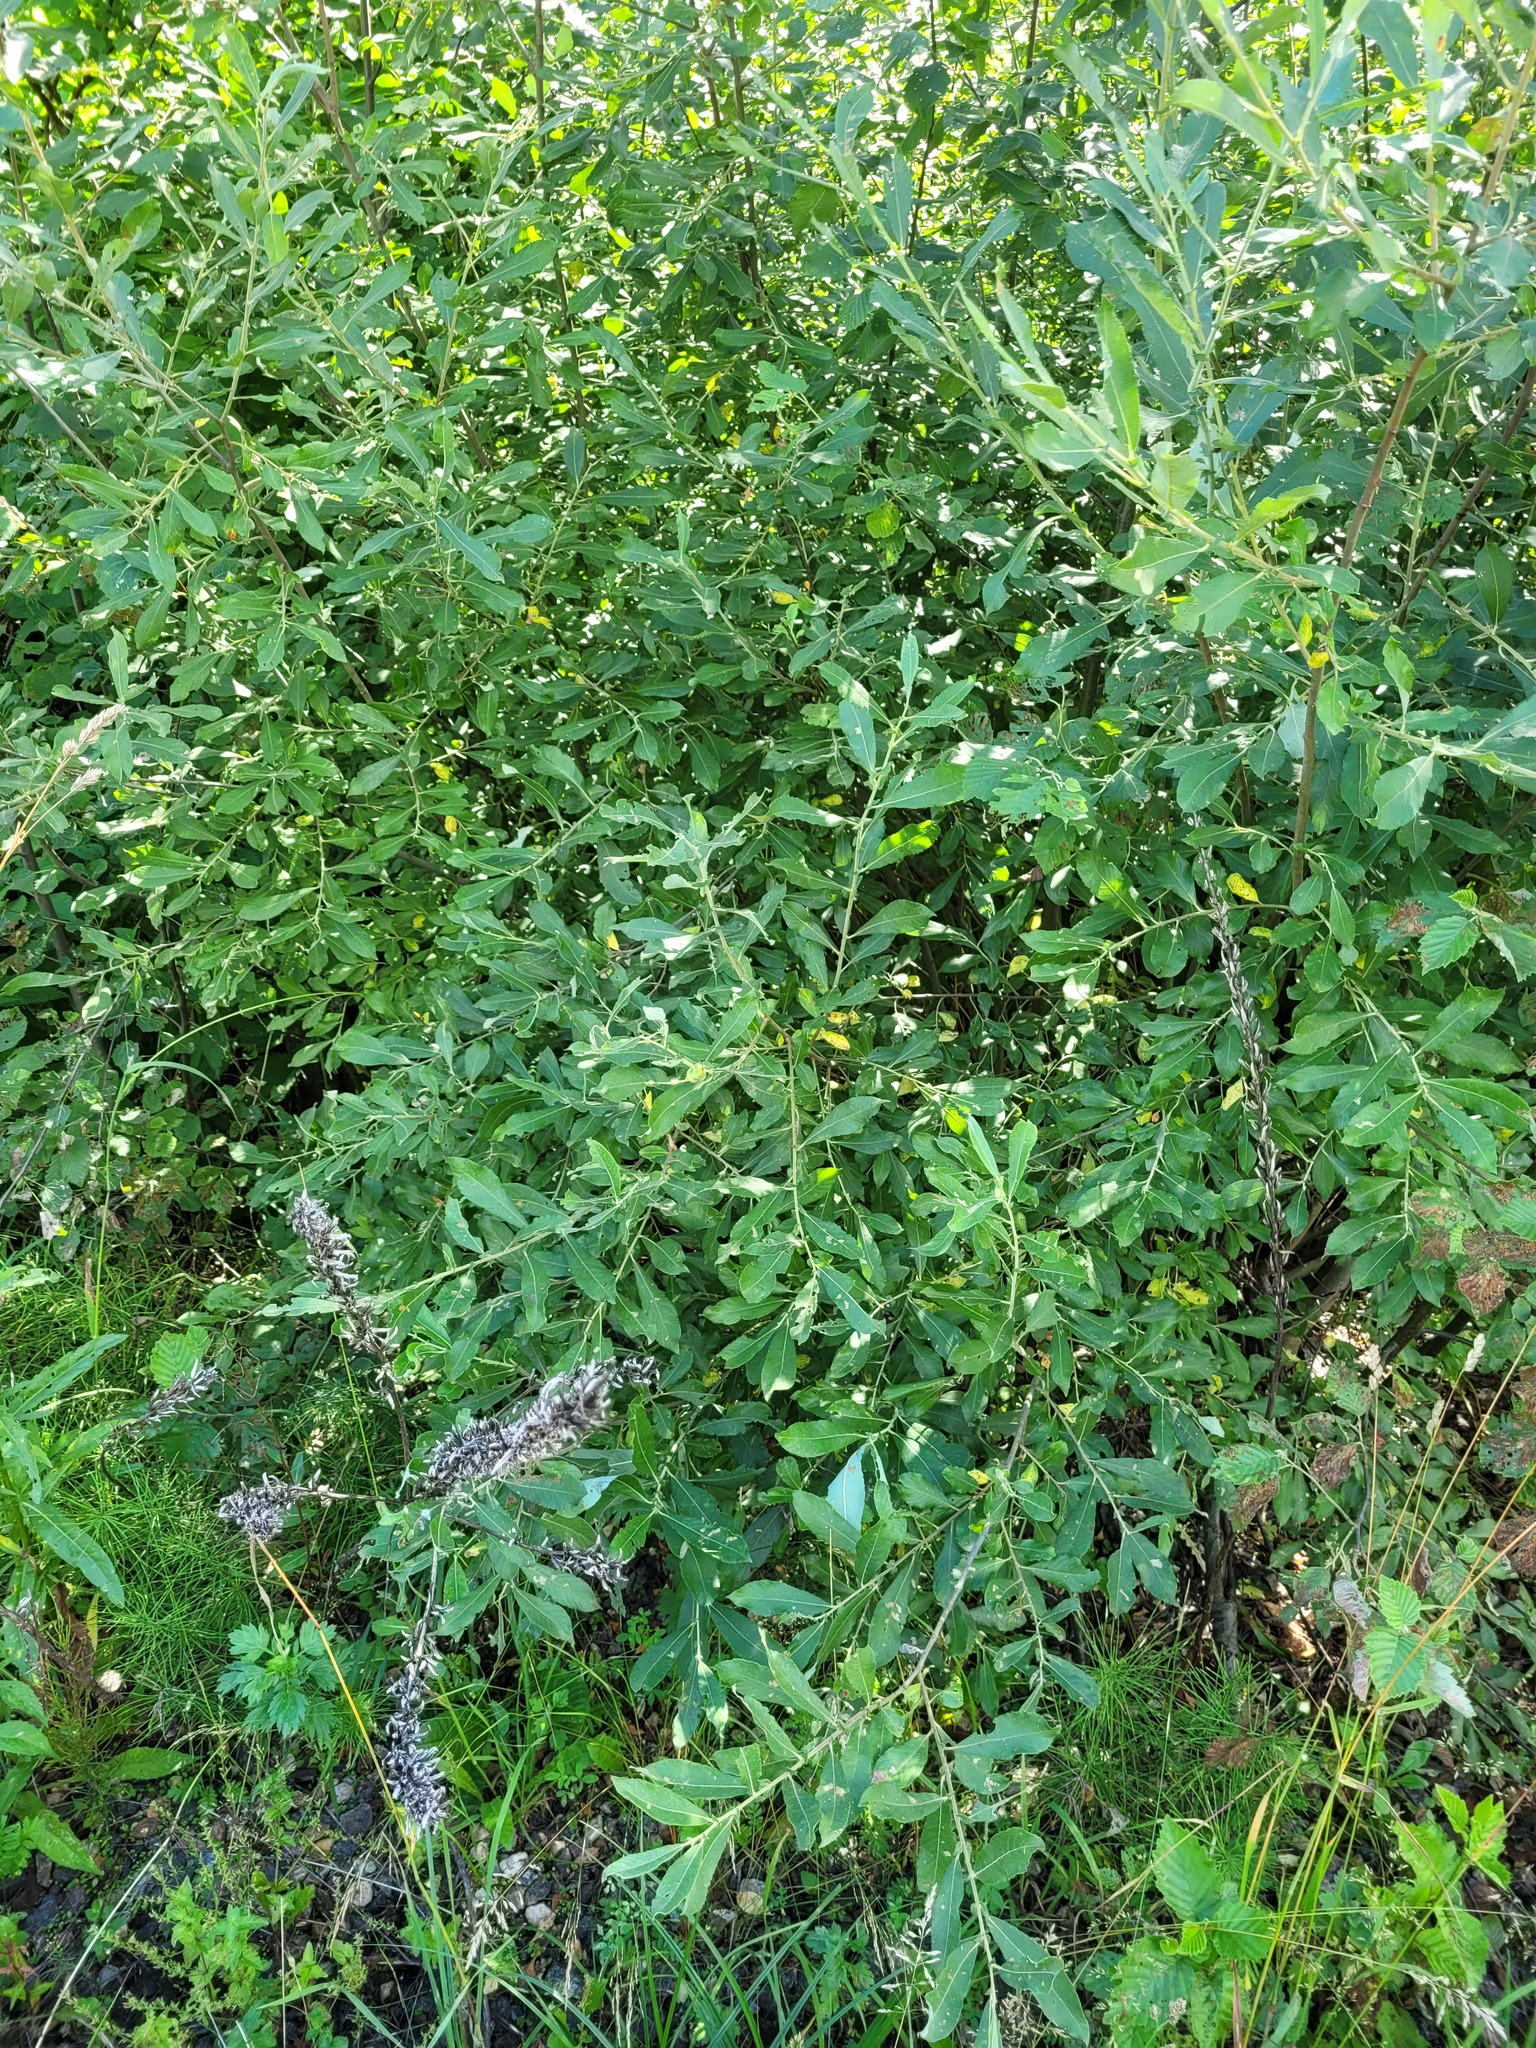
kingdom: Plantae
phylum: Tracheophyta
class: Magnoliopsida
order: Malpighiales
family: Salicaceae
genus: Salix
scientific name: Salix cinerea
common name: Common sallow
